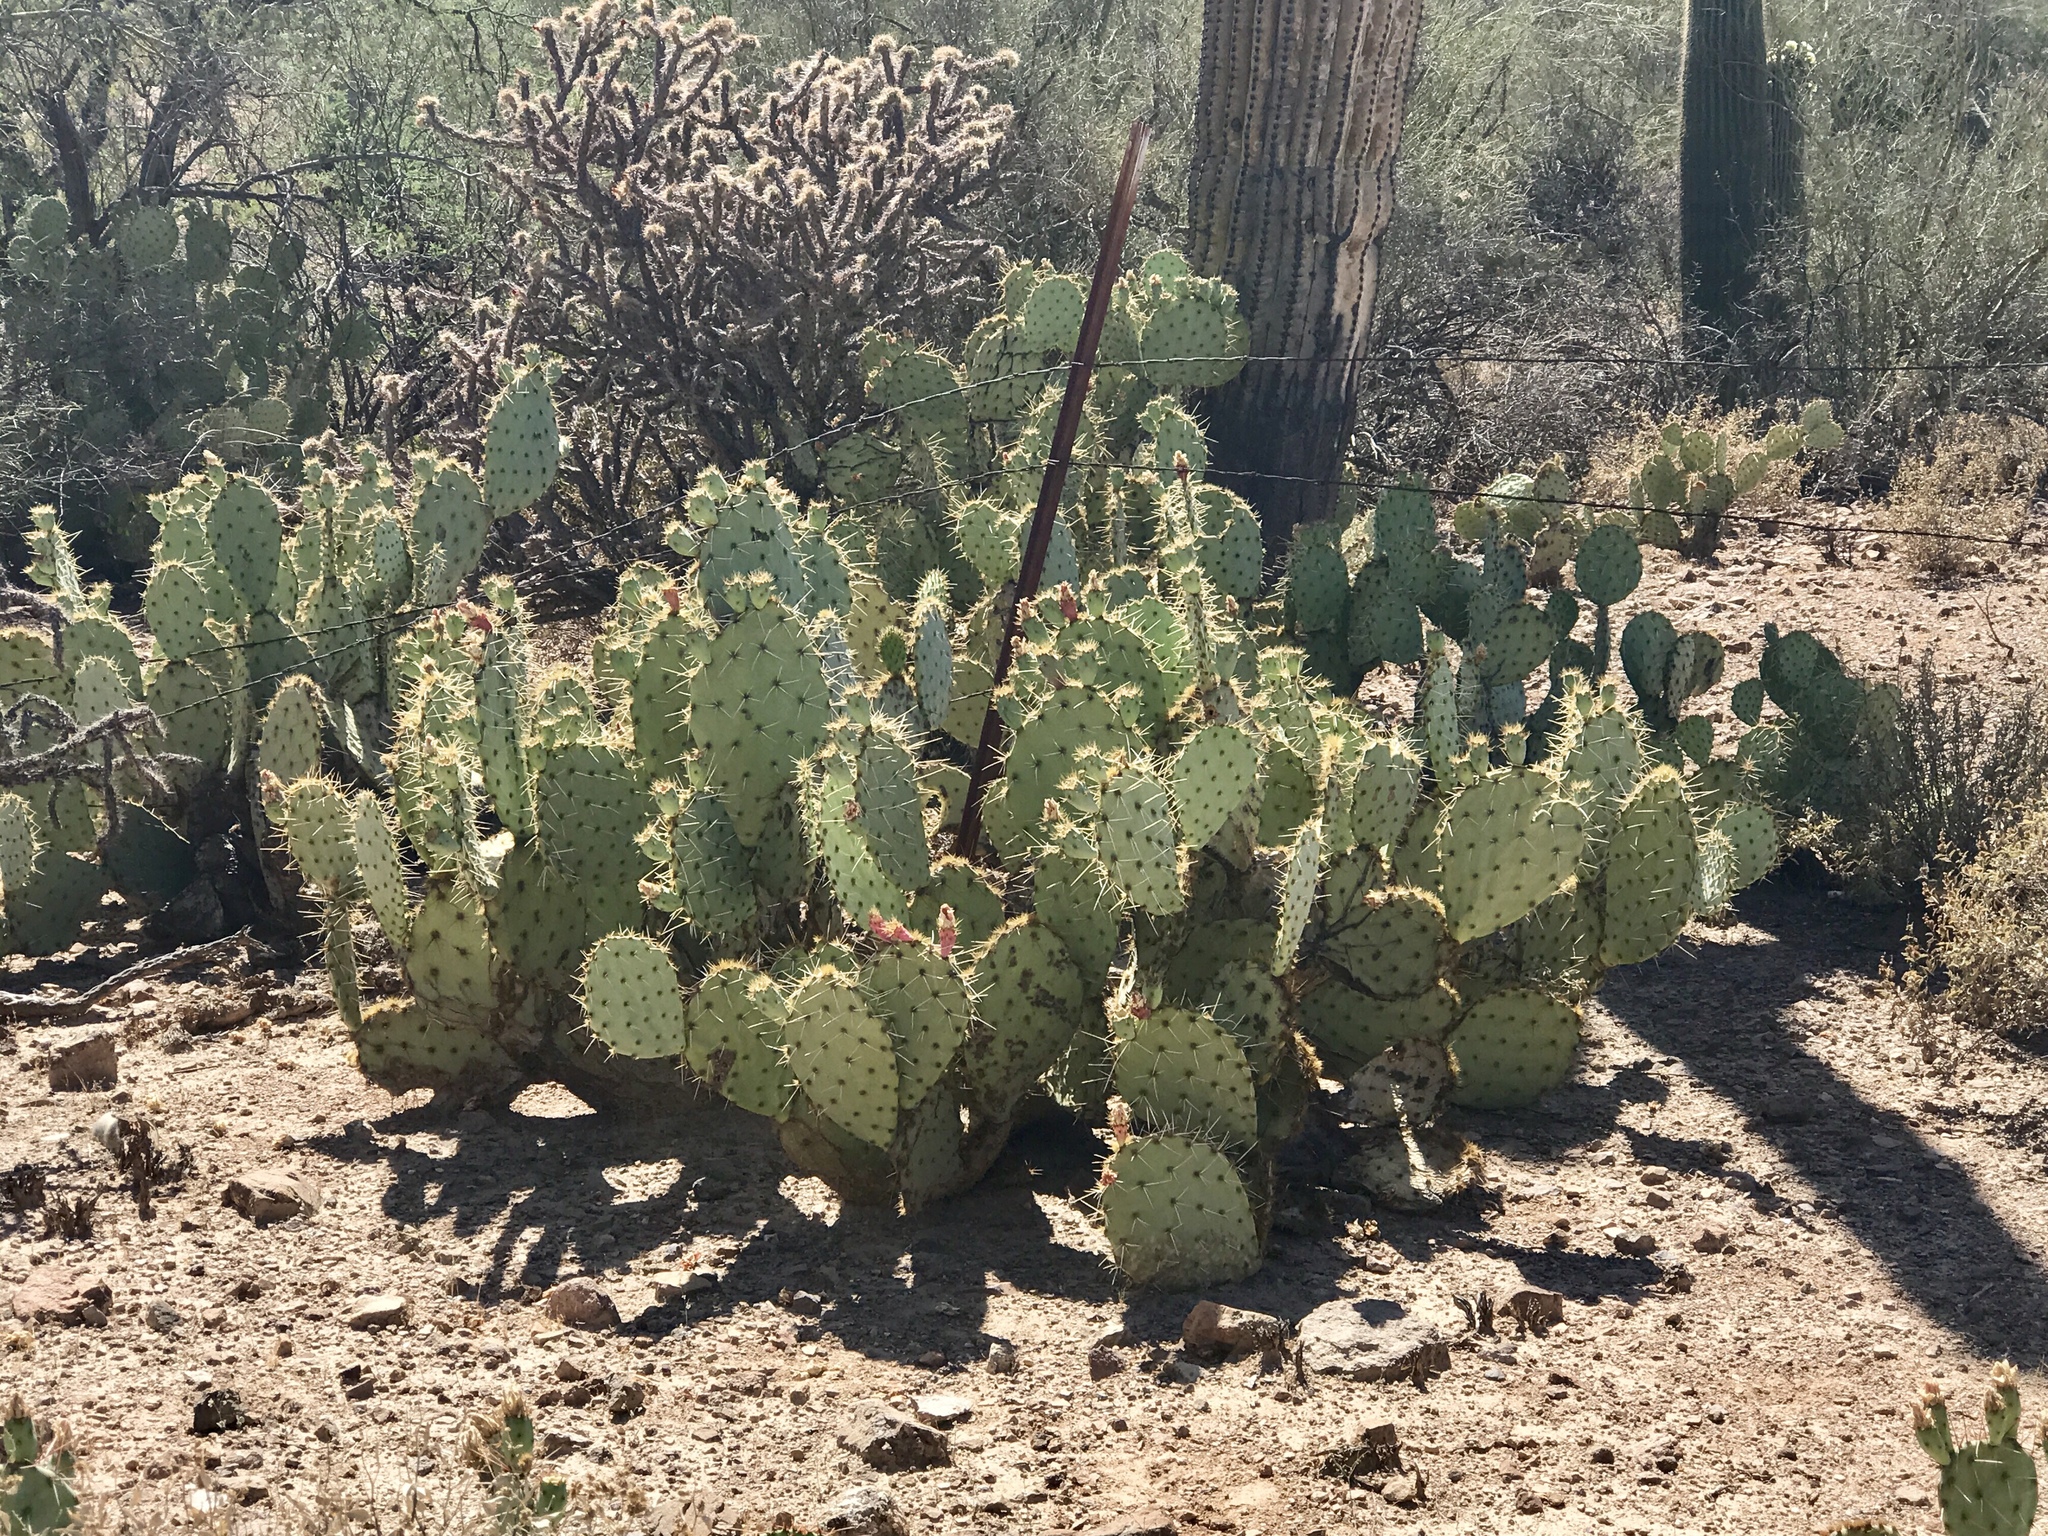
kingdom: Plantae
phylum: Tracheophyta
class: Magnoliopsida
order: Caryophyllales
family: Cactaceae
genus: Opuntia
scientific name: Opuntia engelmannii
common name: Cactus-apple
